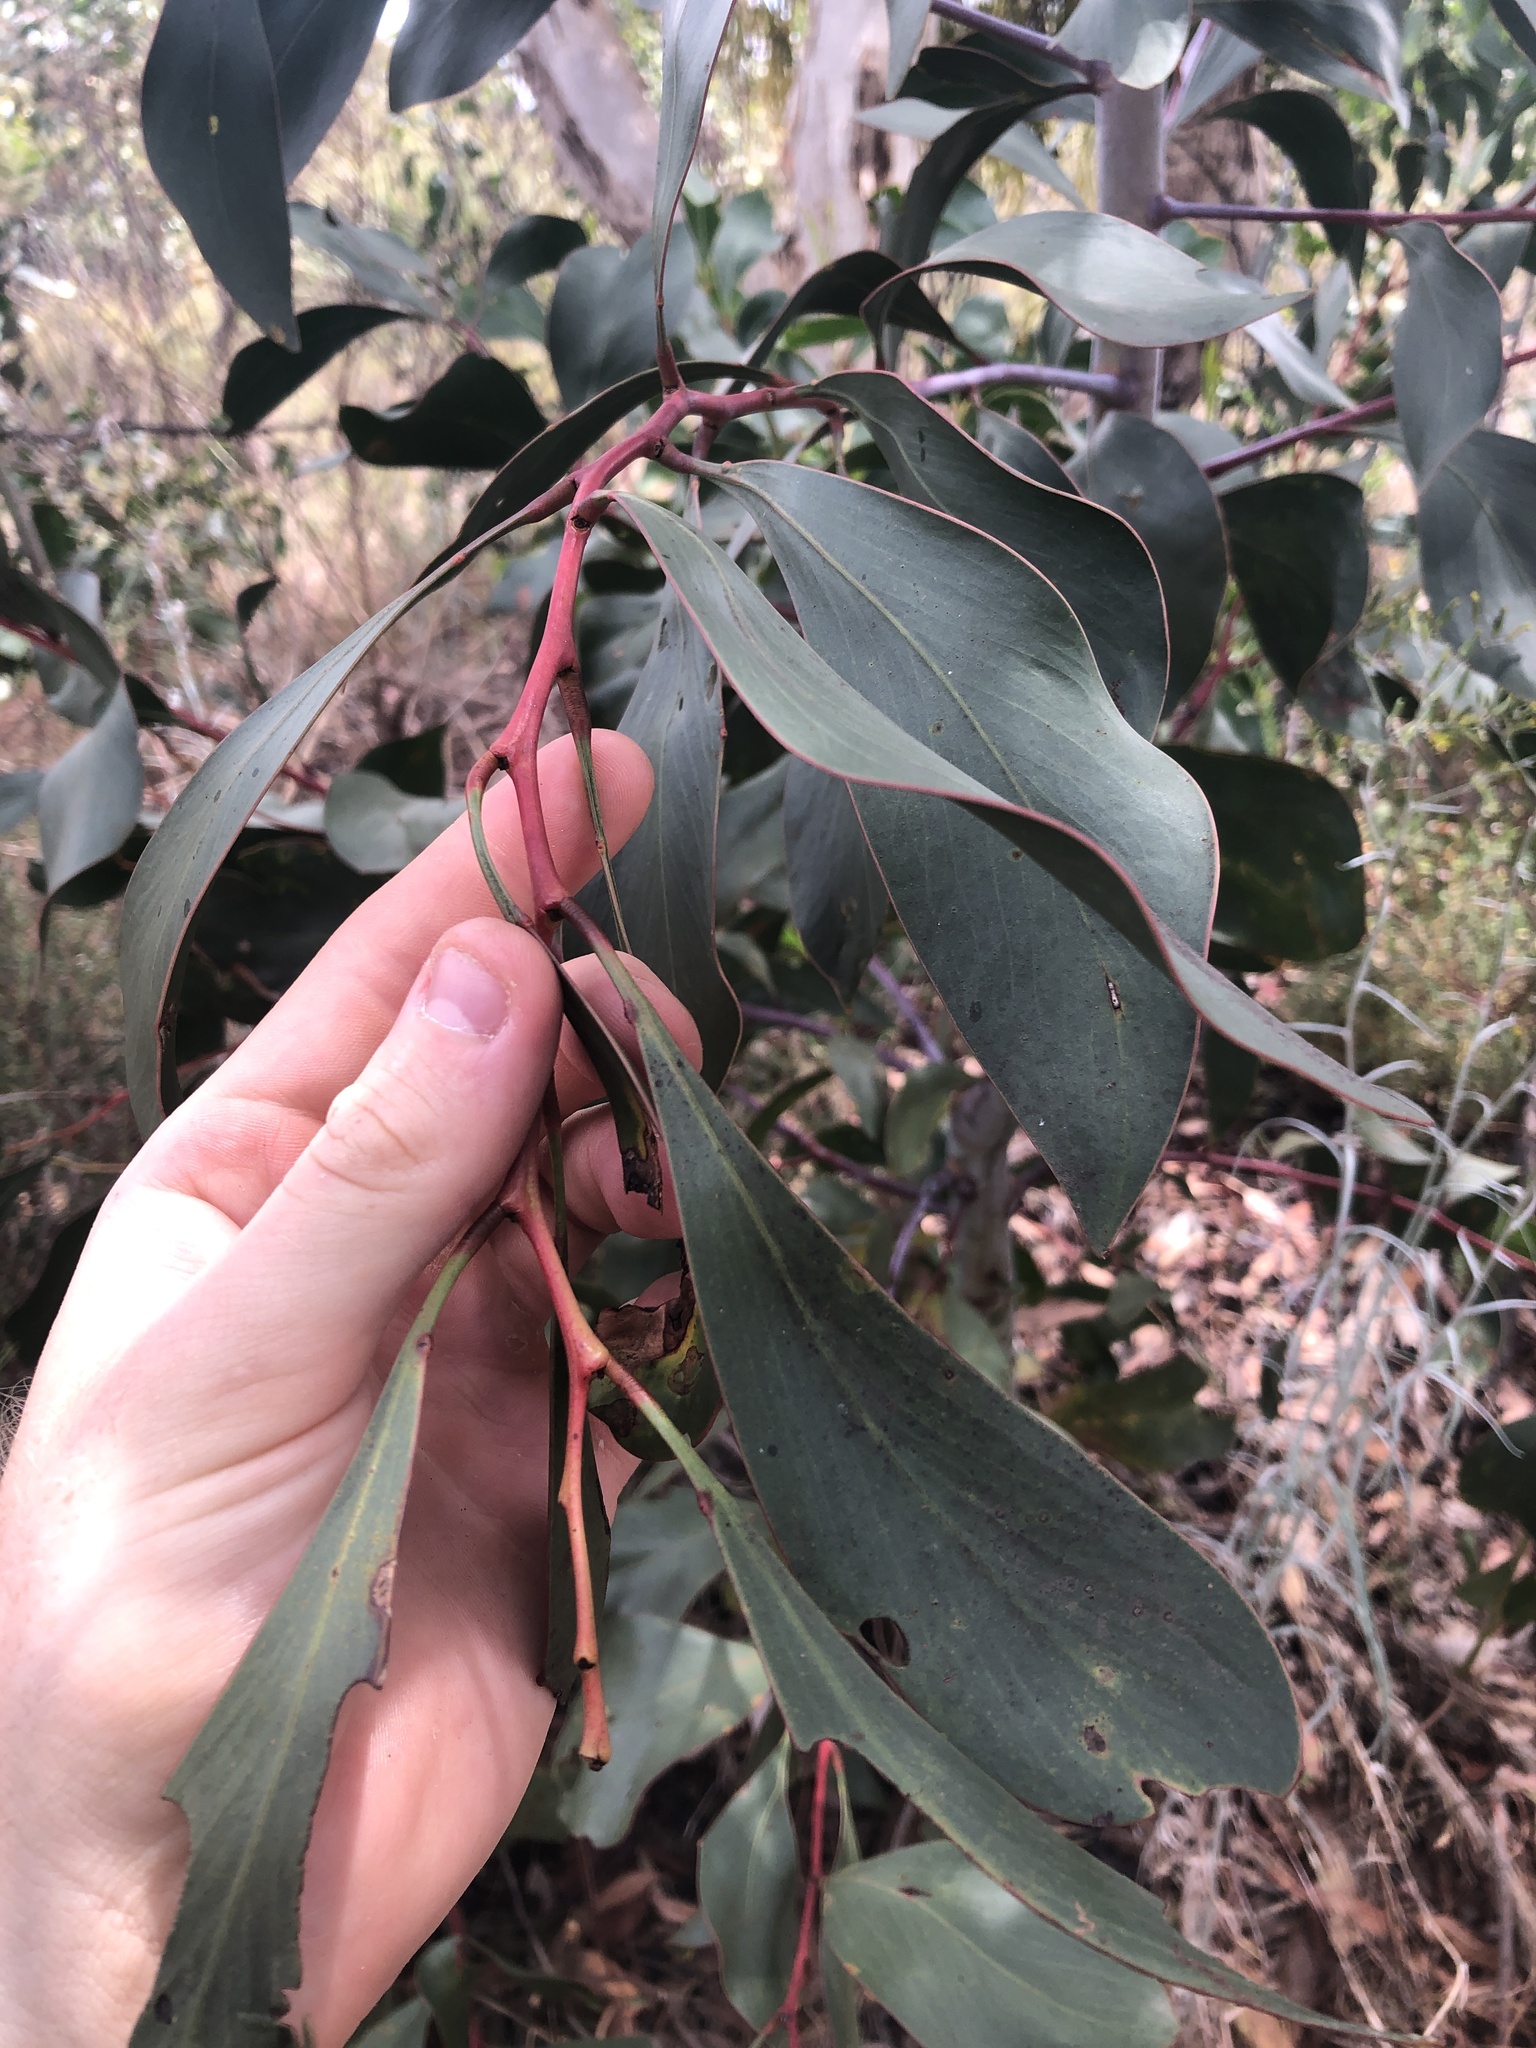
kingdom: Plantae
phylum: Tracheophyta
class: Magnoliopsida
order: Fabales
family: Fabaceae
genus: Acacia
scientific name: Acacia pycnantha
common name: Golden wattle
